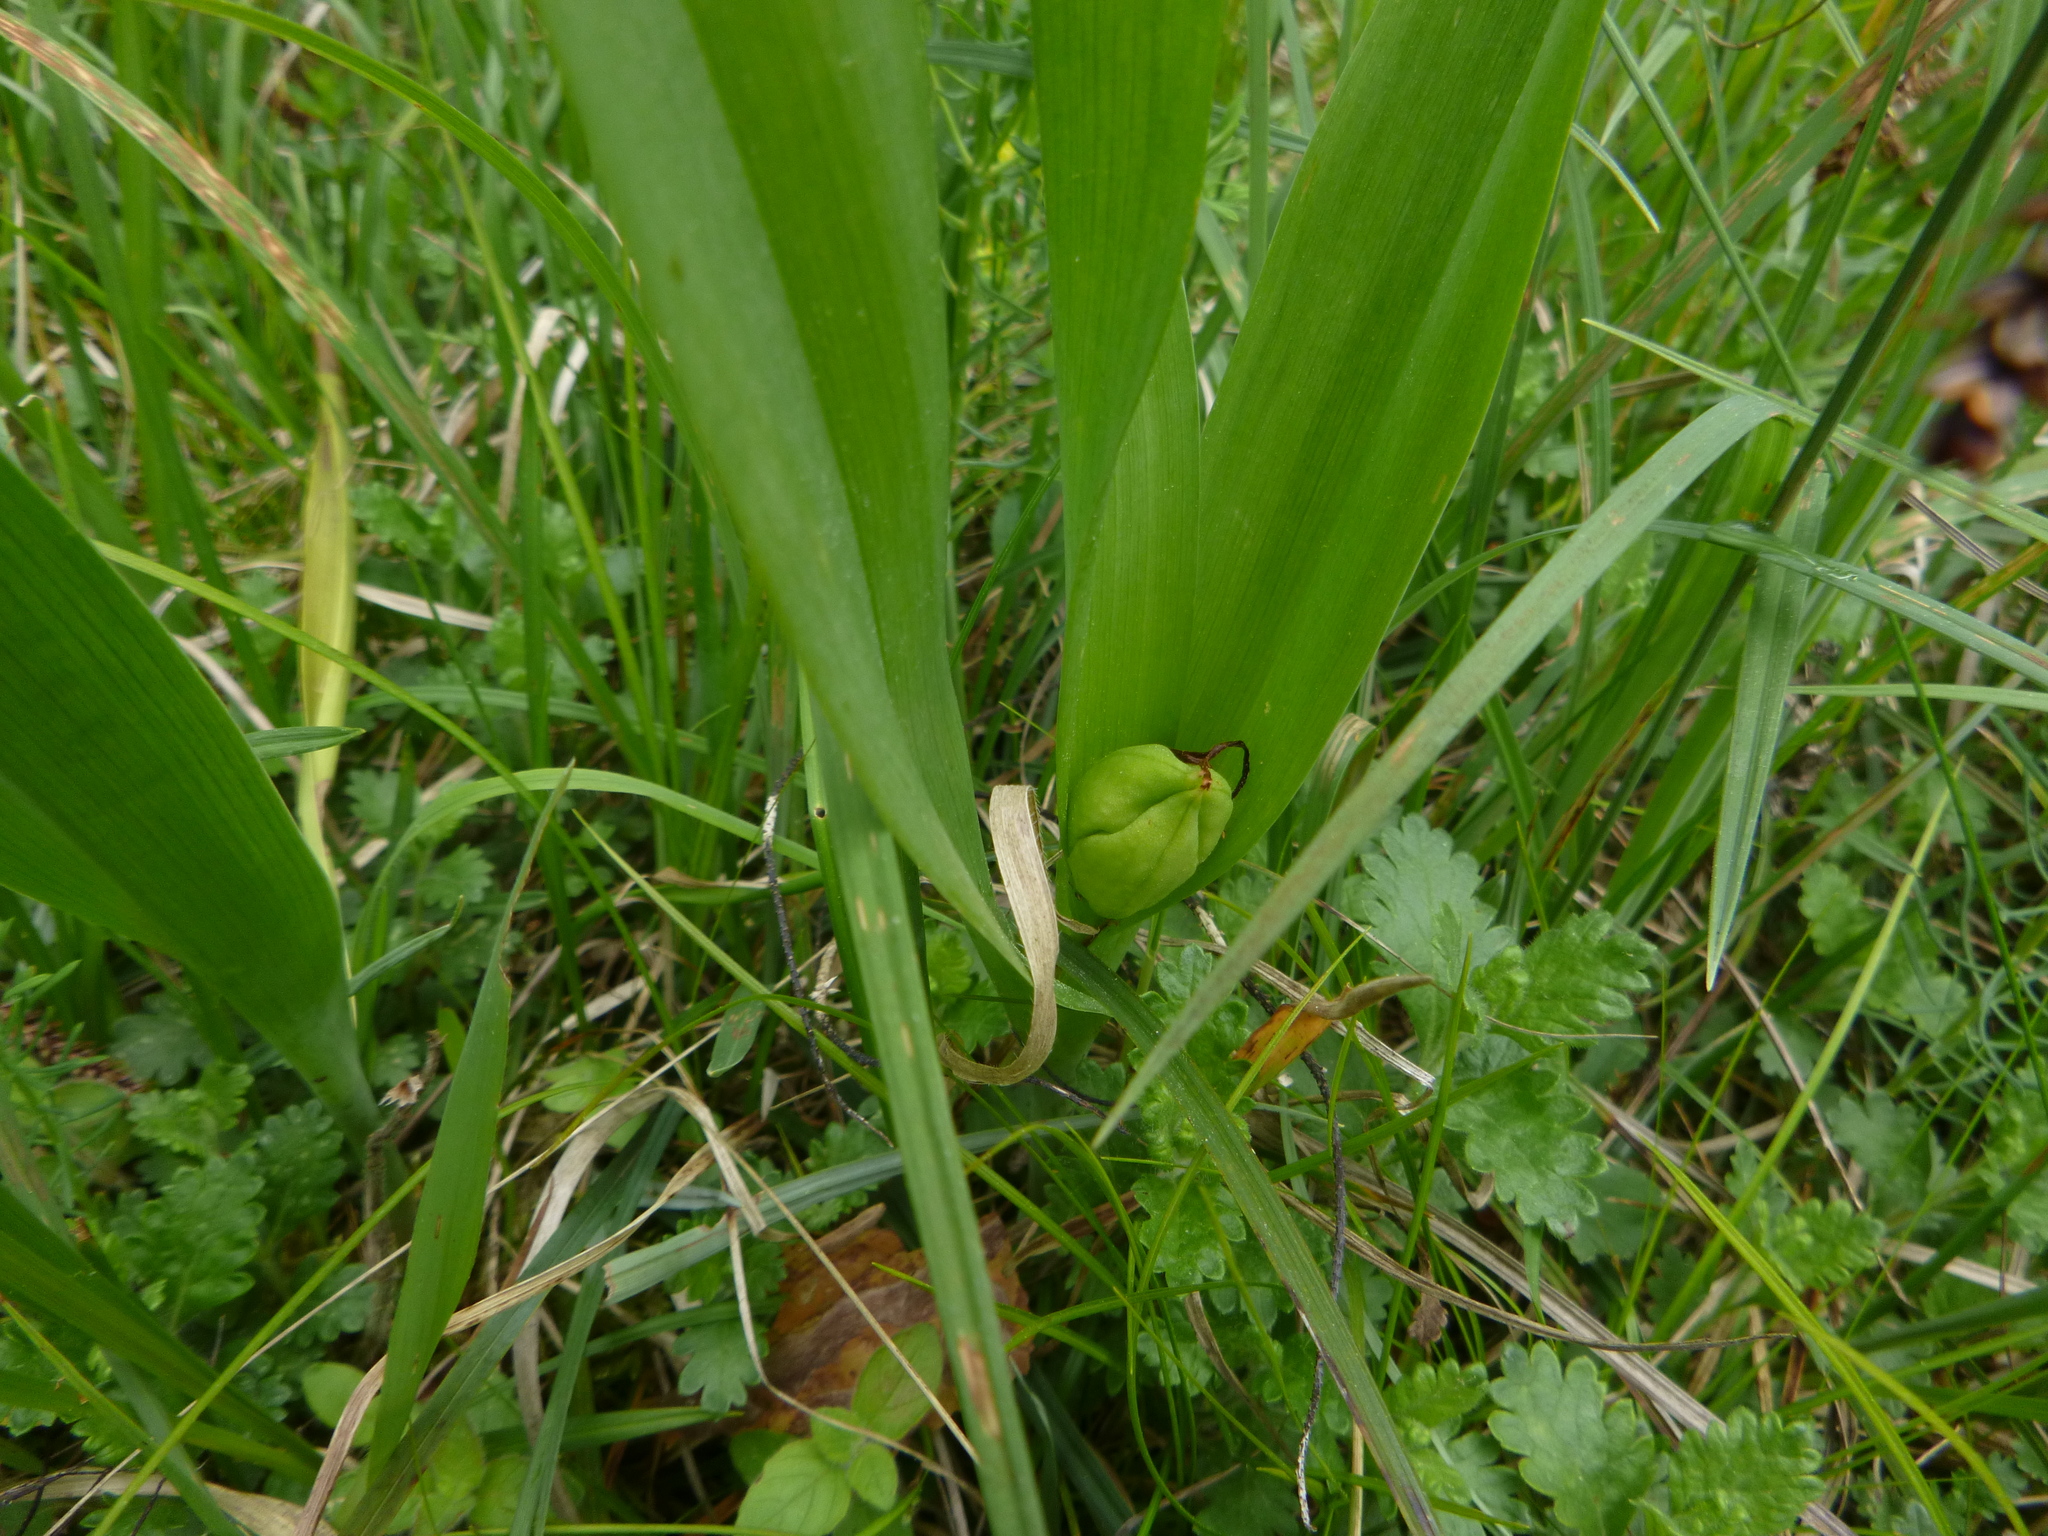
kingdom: Plantae
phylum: Tracheophyta
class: Liliopsida
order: Liliales
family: Colchicaceae
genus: Colchicum
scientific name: Colchicum autumnale
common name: Autumn crocus
